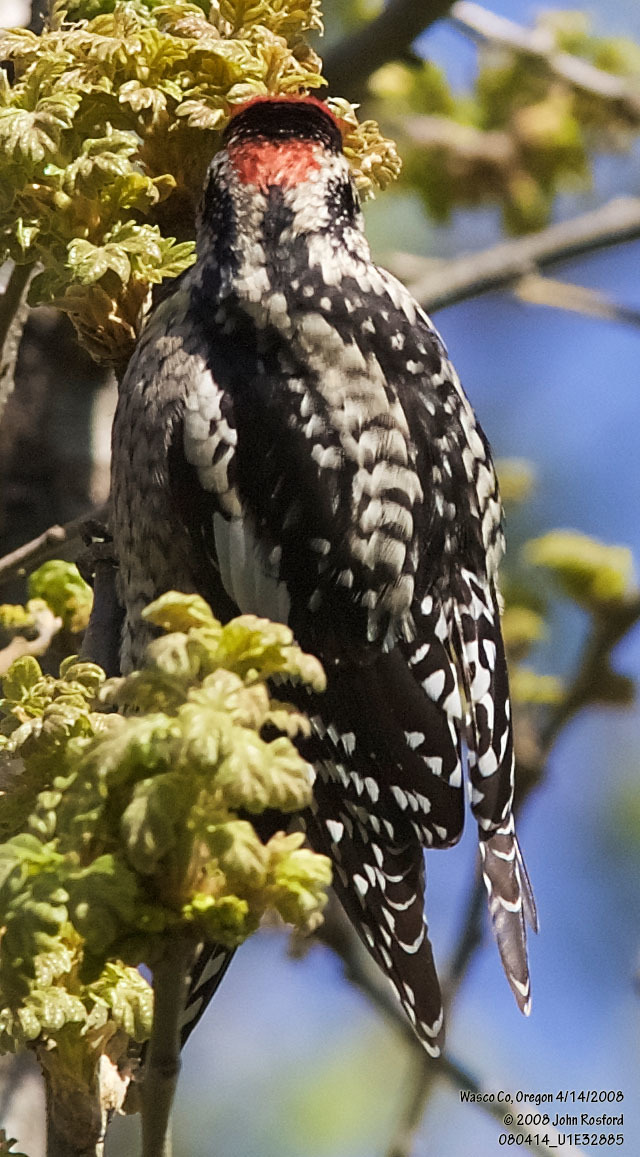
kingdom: Animalia
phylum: Chordata
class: Aves
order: Piciformes
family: Picidae
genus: Sphyrapicus
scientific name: Sphyrapicus nuchalis
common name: Red-naped sapsucker
